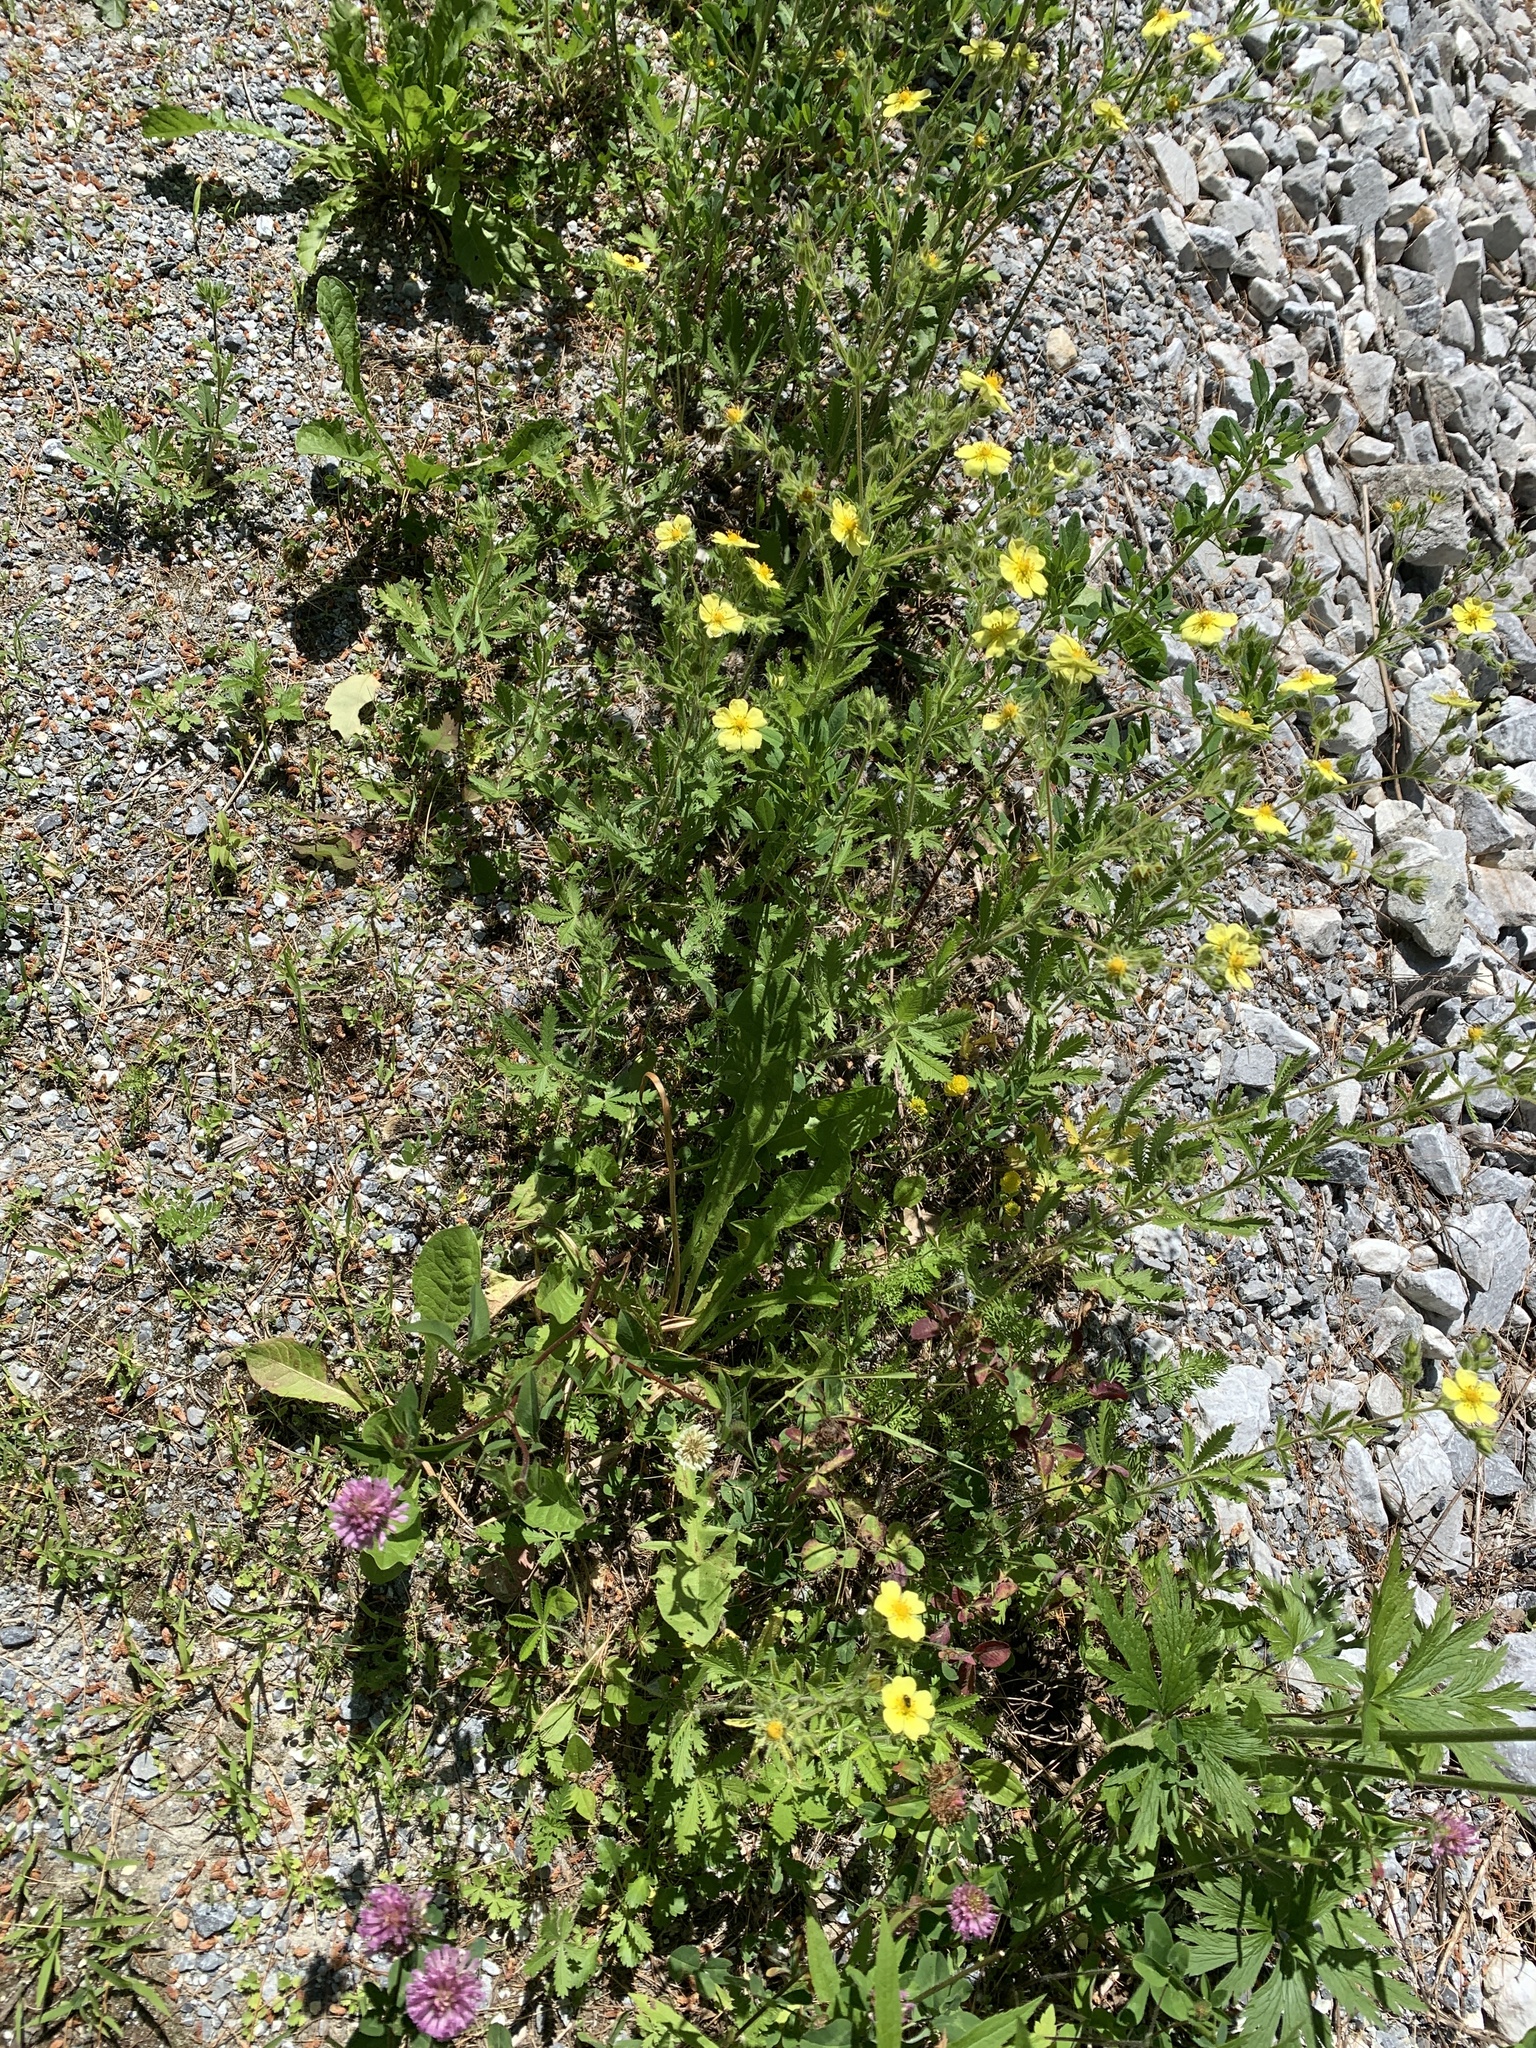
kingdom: Plantae
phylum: Tracheophyta
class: Magnoliopsida
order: Rosales
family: Rosaceae
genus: Potentilla
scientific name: Potentilla recta
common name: Sulphur cinquefoil
